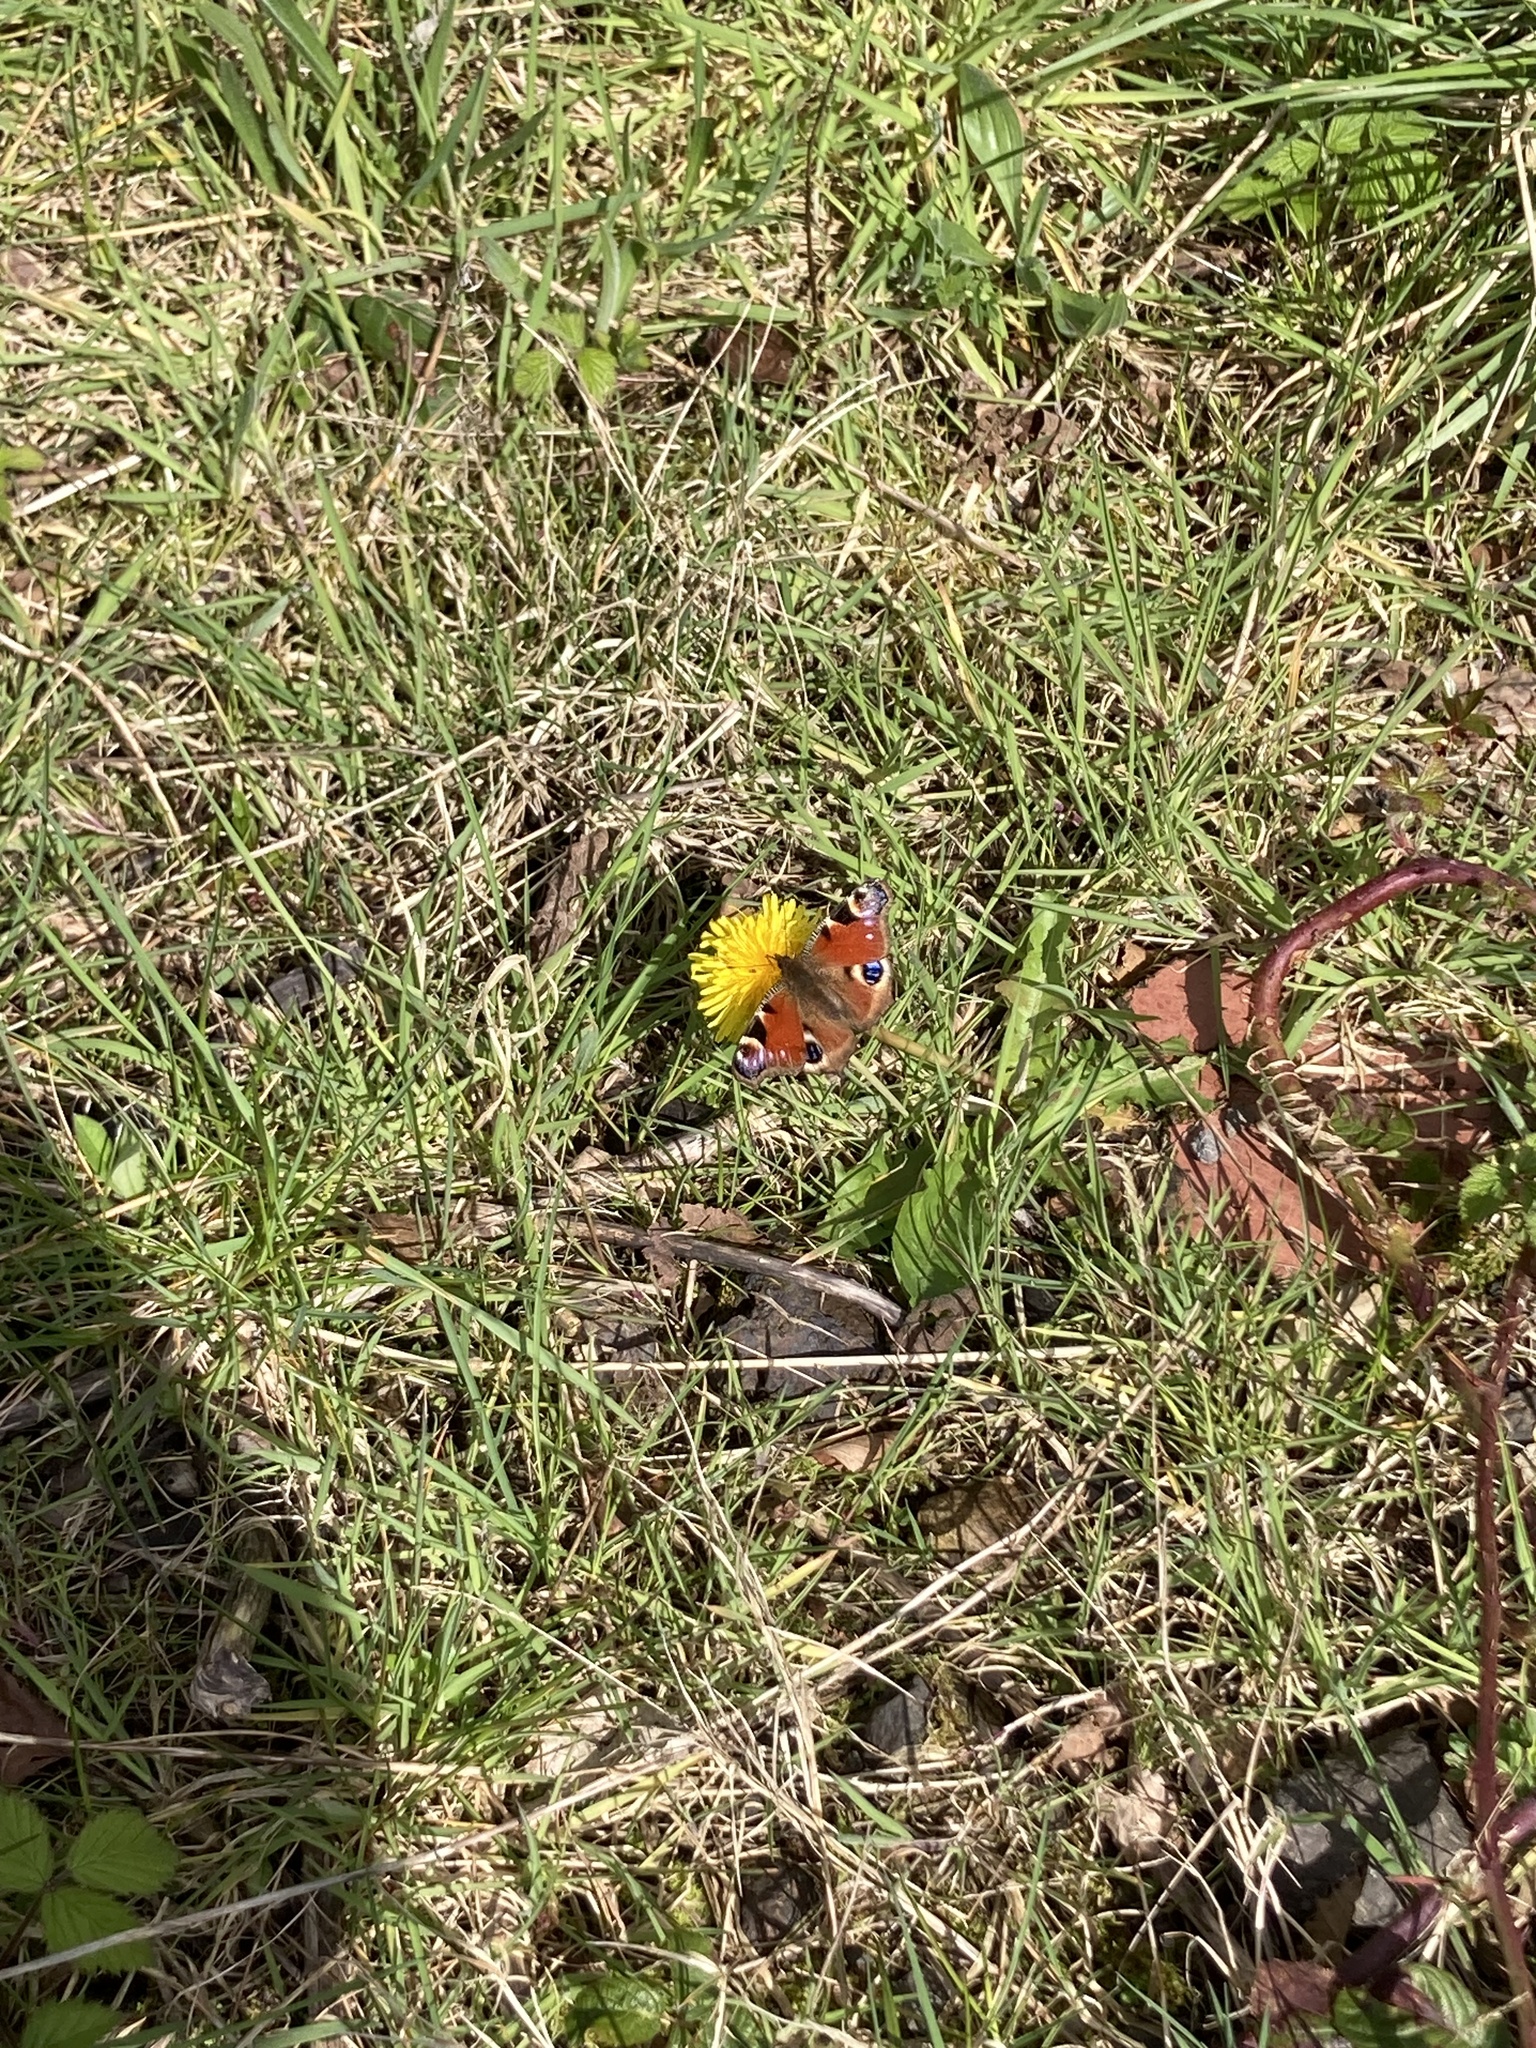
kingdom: Animalia
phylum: Arthropoda
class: Insecta
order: Lepidoptera
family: Nymphalidae
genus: Aglais
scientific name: Aglais io
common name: Peacock
